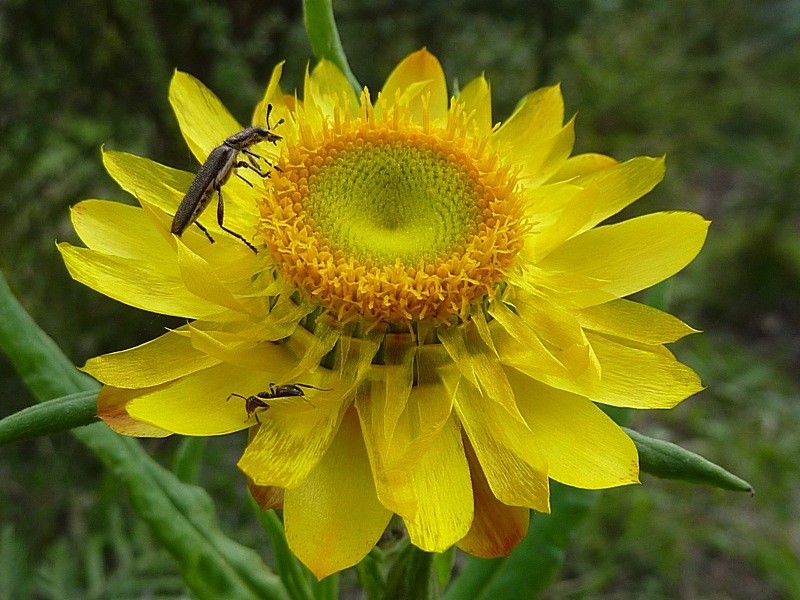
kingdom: Plantae
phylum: Tracheophyta
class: Magnoliopsida
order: Asterales
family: Asteraceae
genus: Xerochrysum
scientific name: Xerochrysum bracteatum
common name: Bracted strawflower
